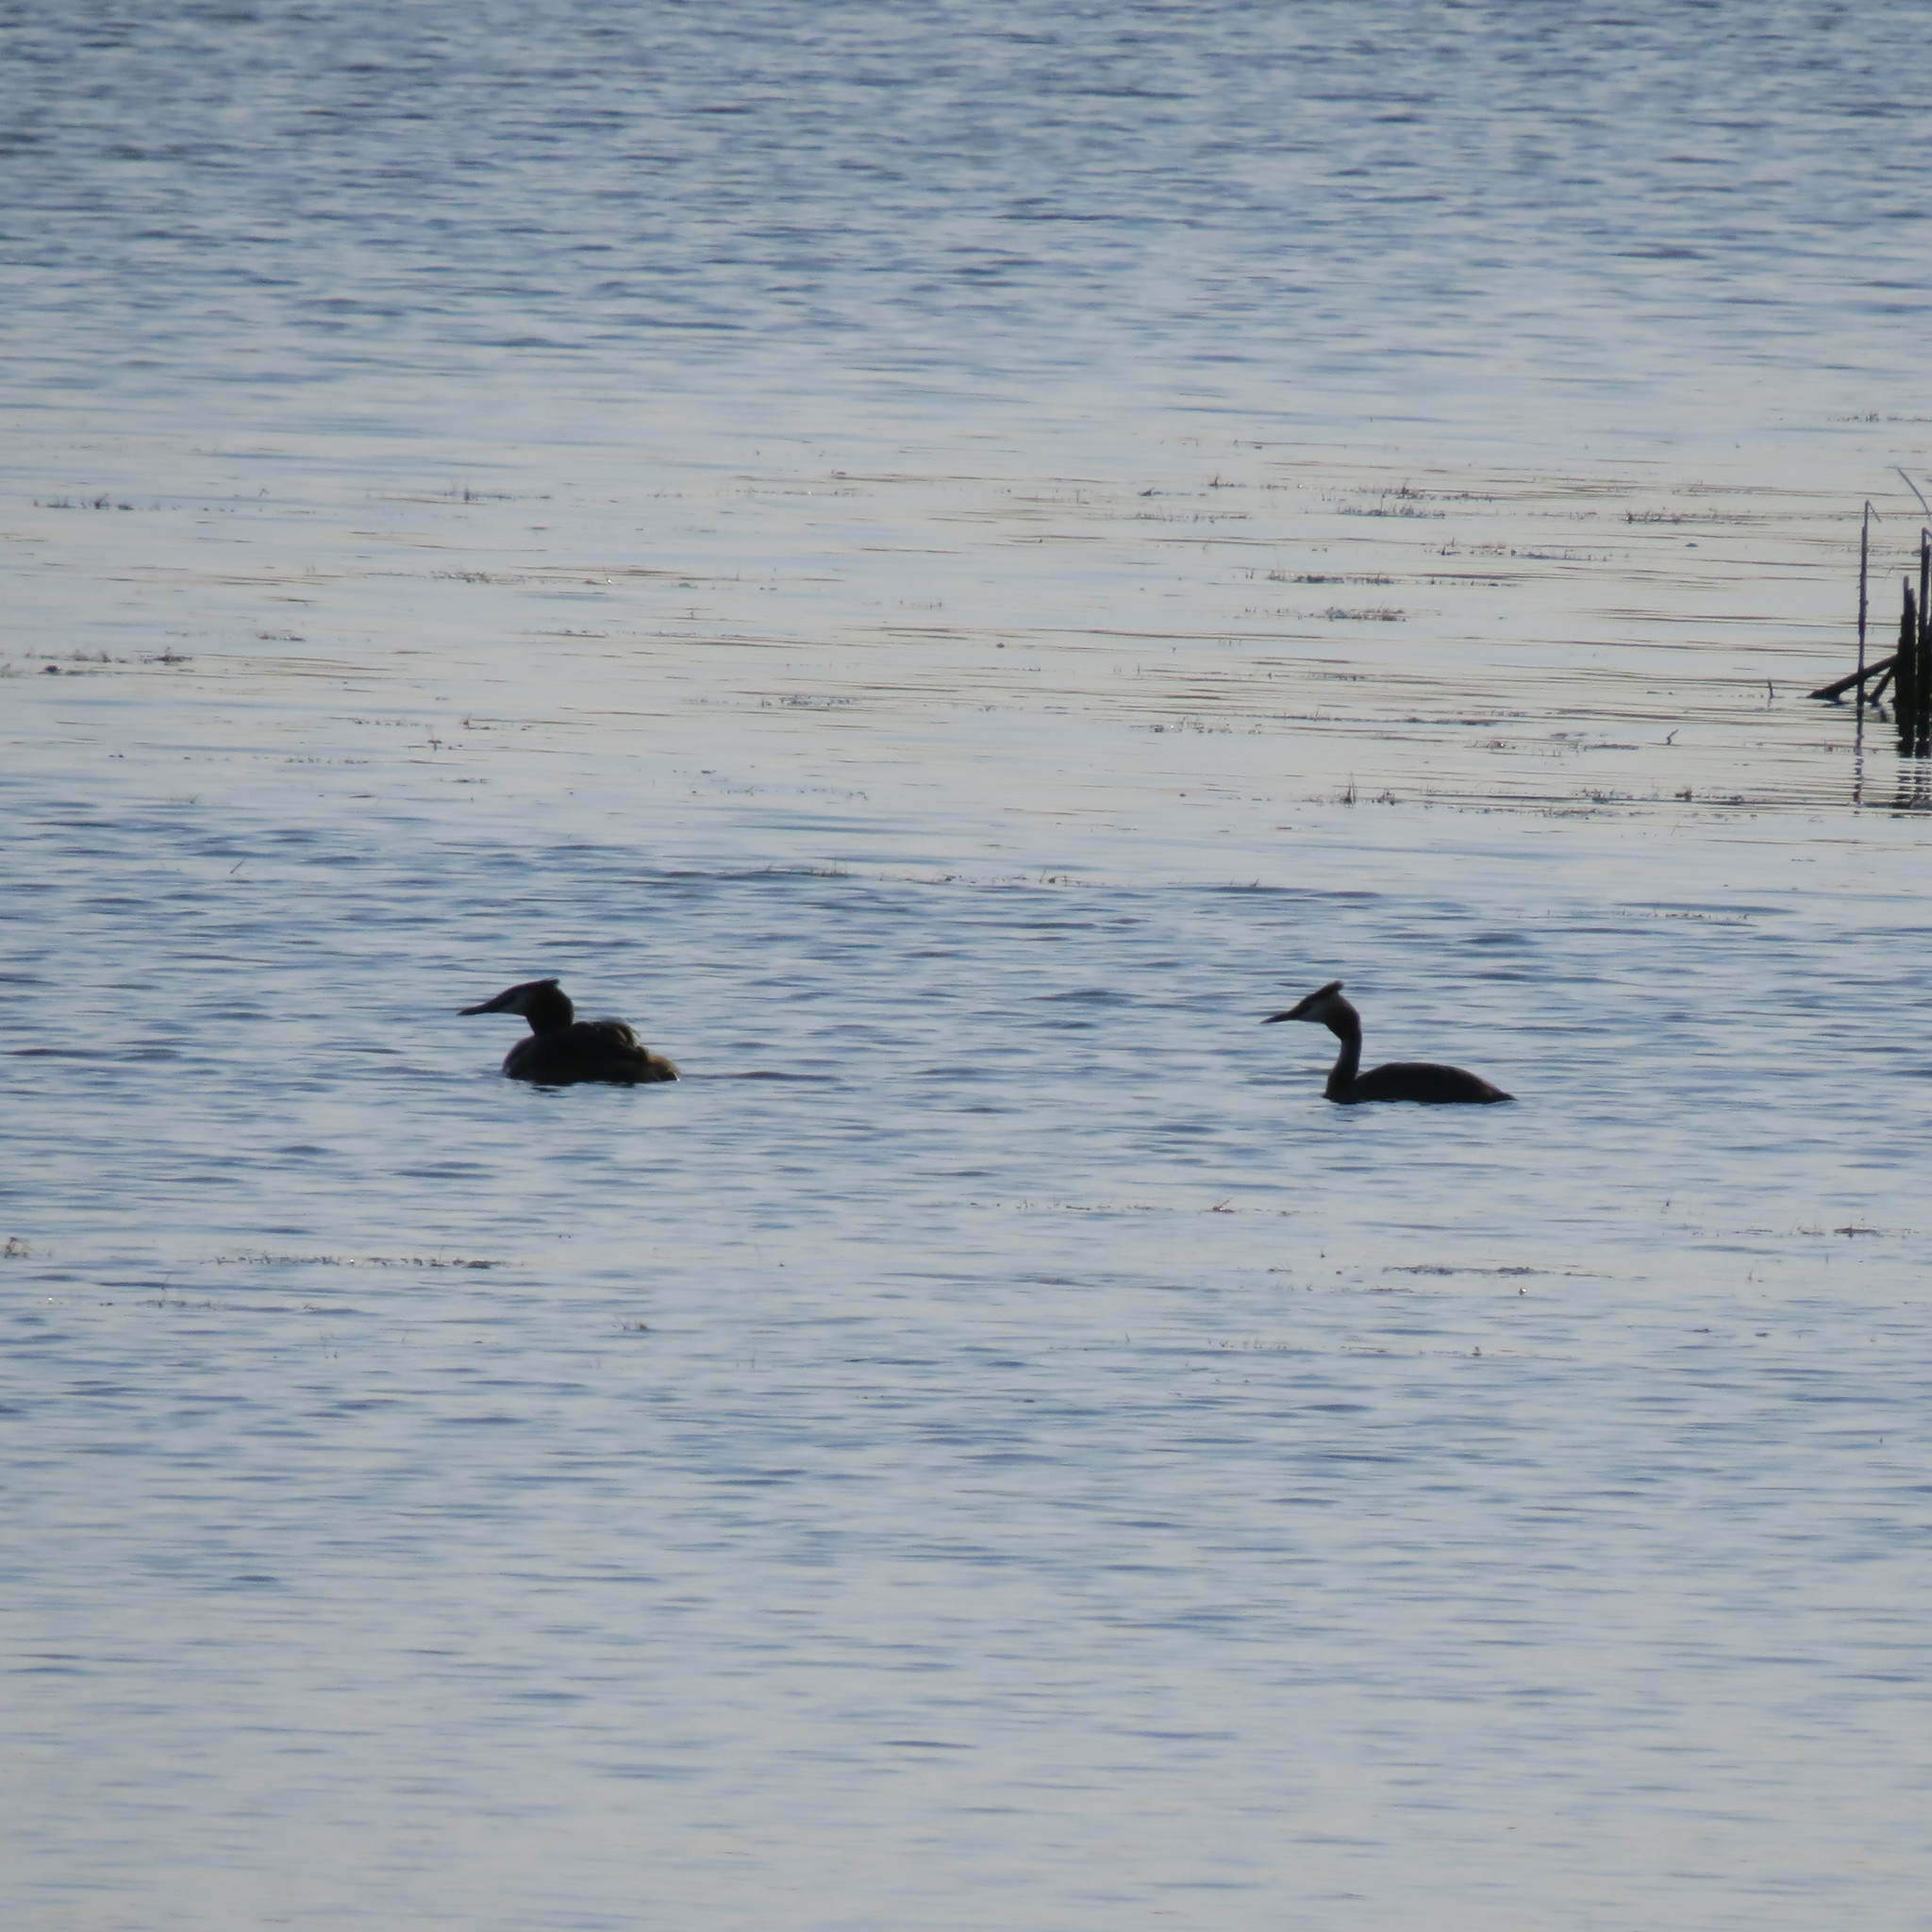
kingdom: Animalia
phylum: Chordata
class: Aves
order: Podicipediformes
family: Podicipedidae
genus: Podiceps
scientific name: Podiceps cristatus
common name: Great crested grebe
